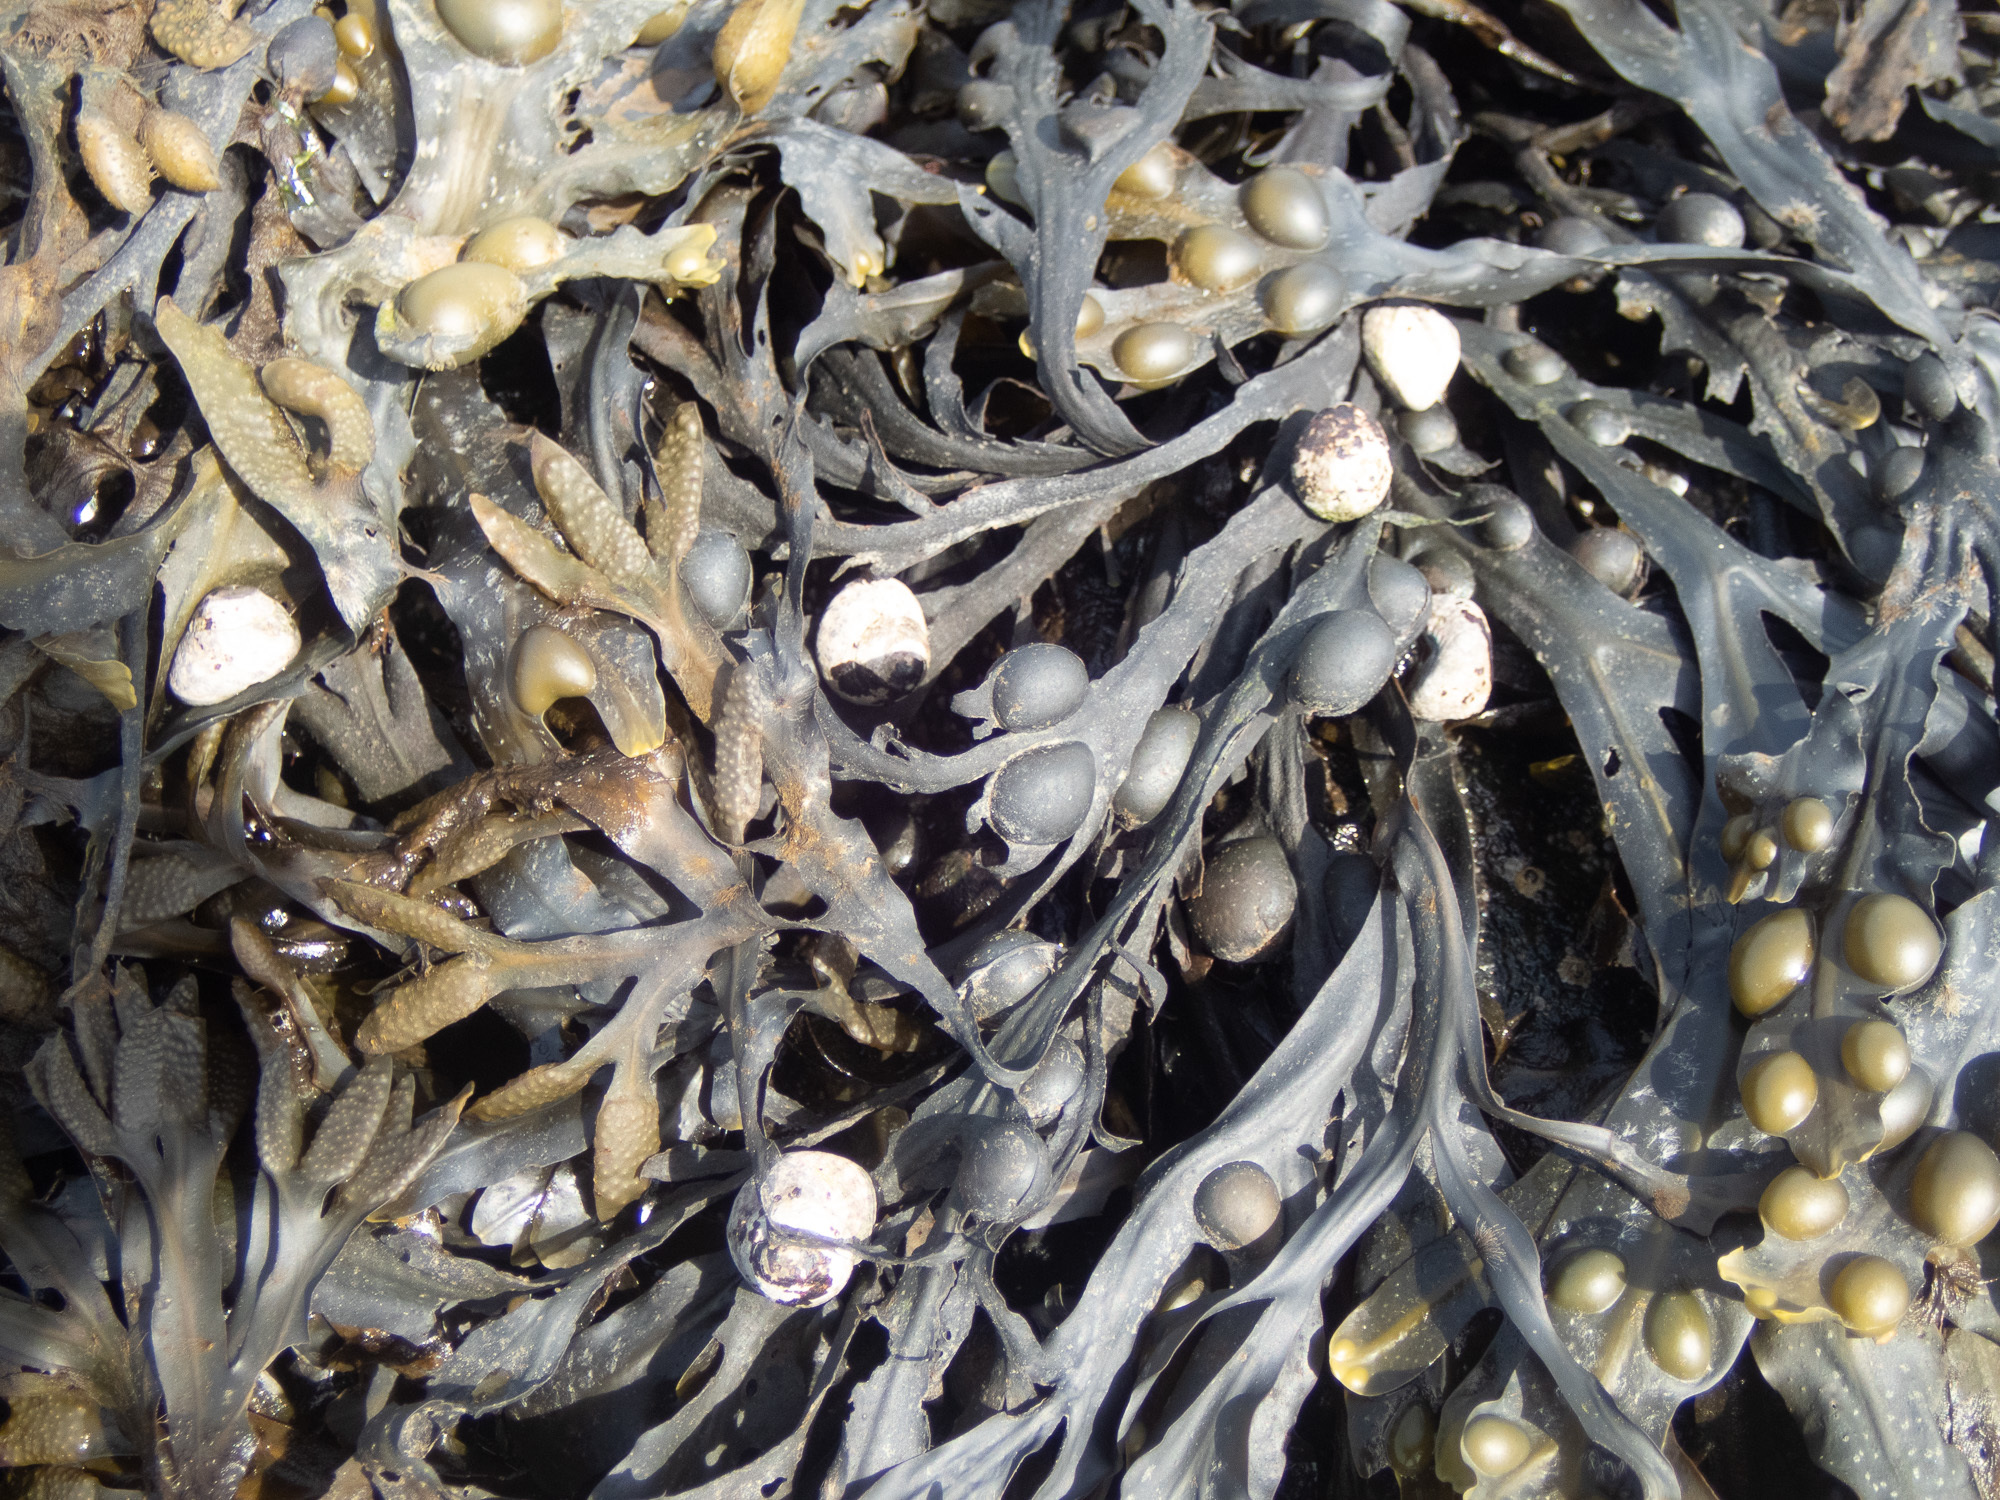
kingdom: Animalia
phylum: Mollusca
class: Gastropoda
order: Trochida
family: Trochidae
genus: Steromphala
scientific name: Steromphala umbilicalis
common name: Flat top shell
